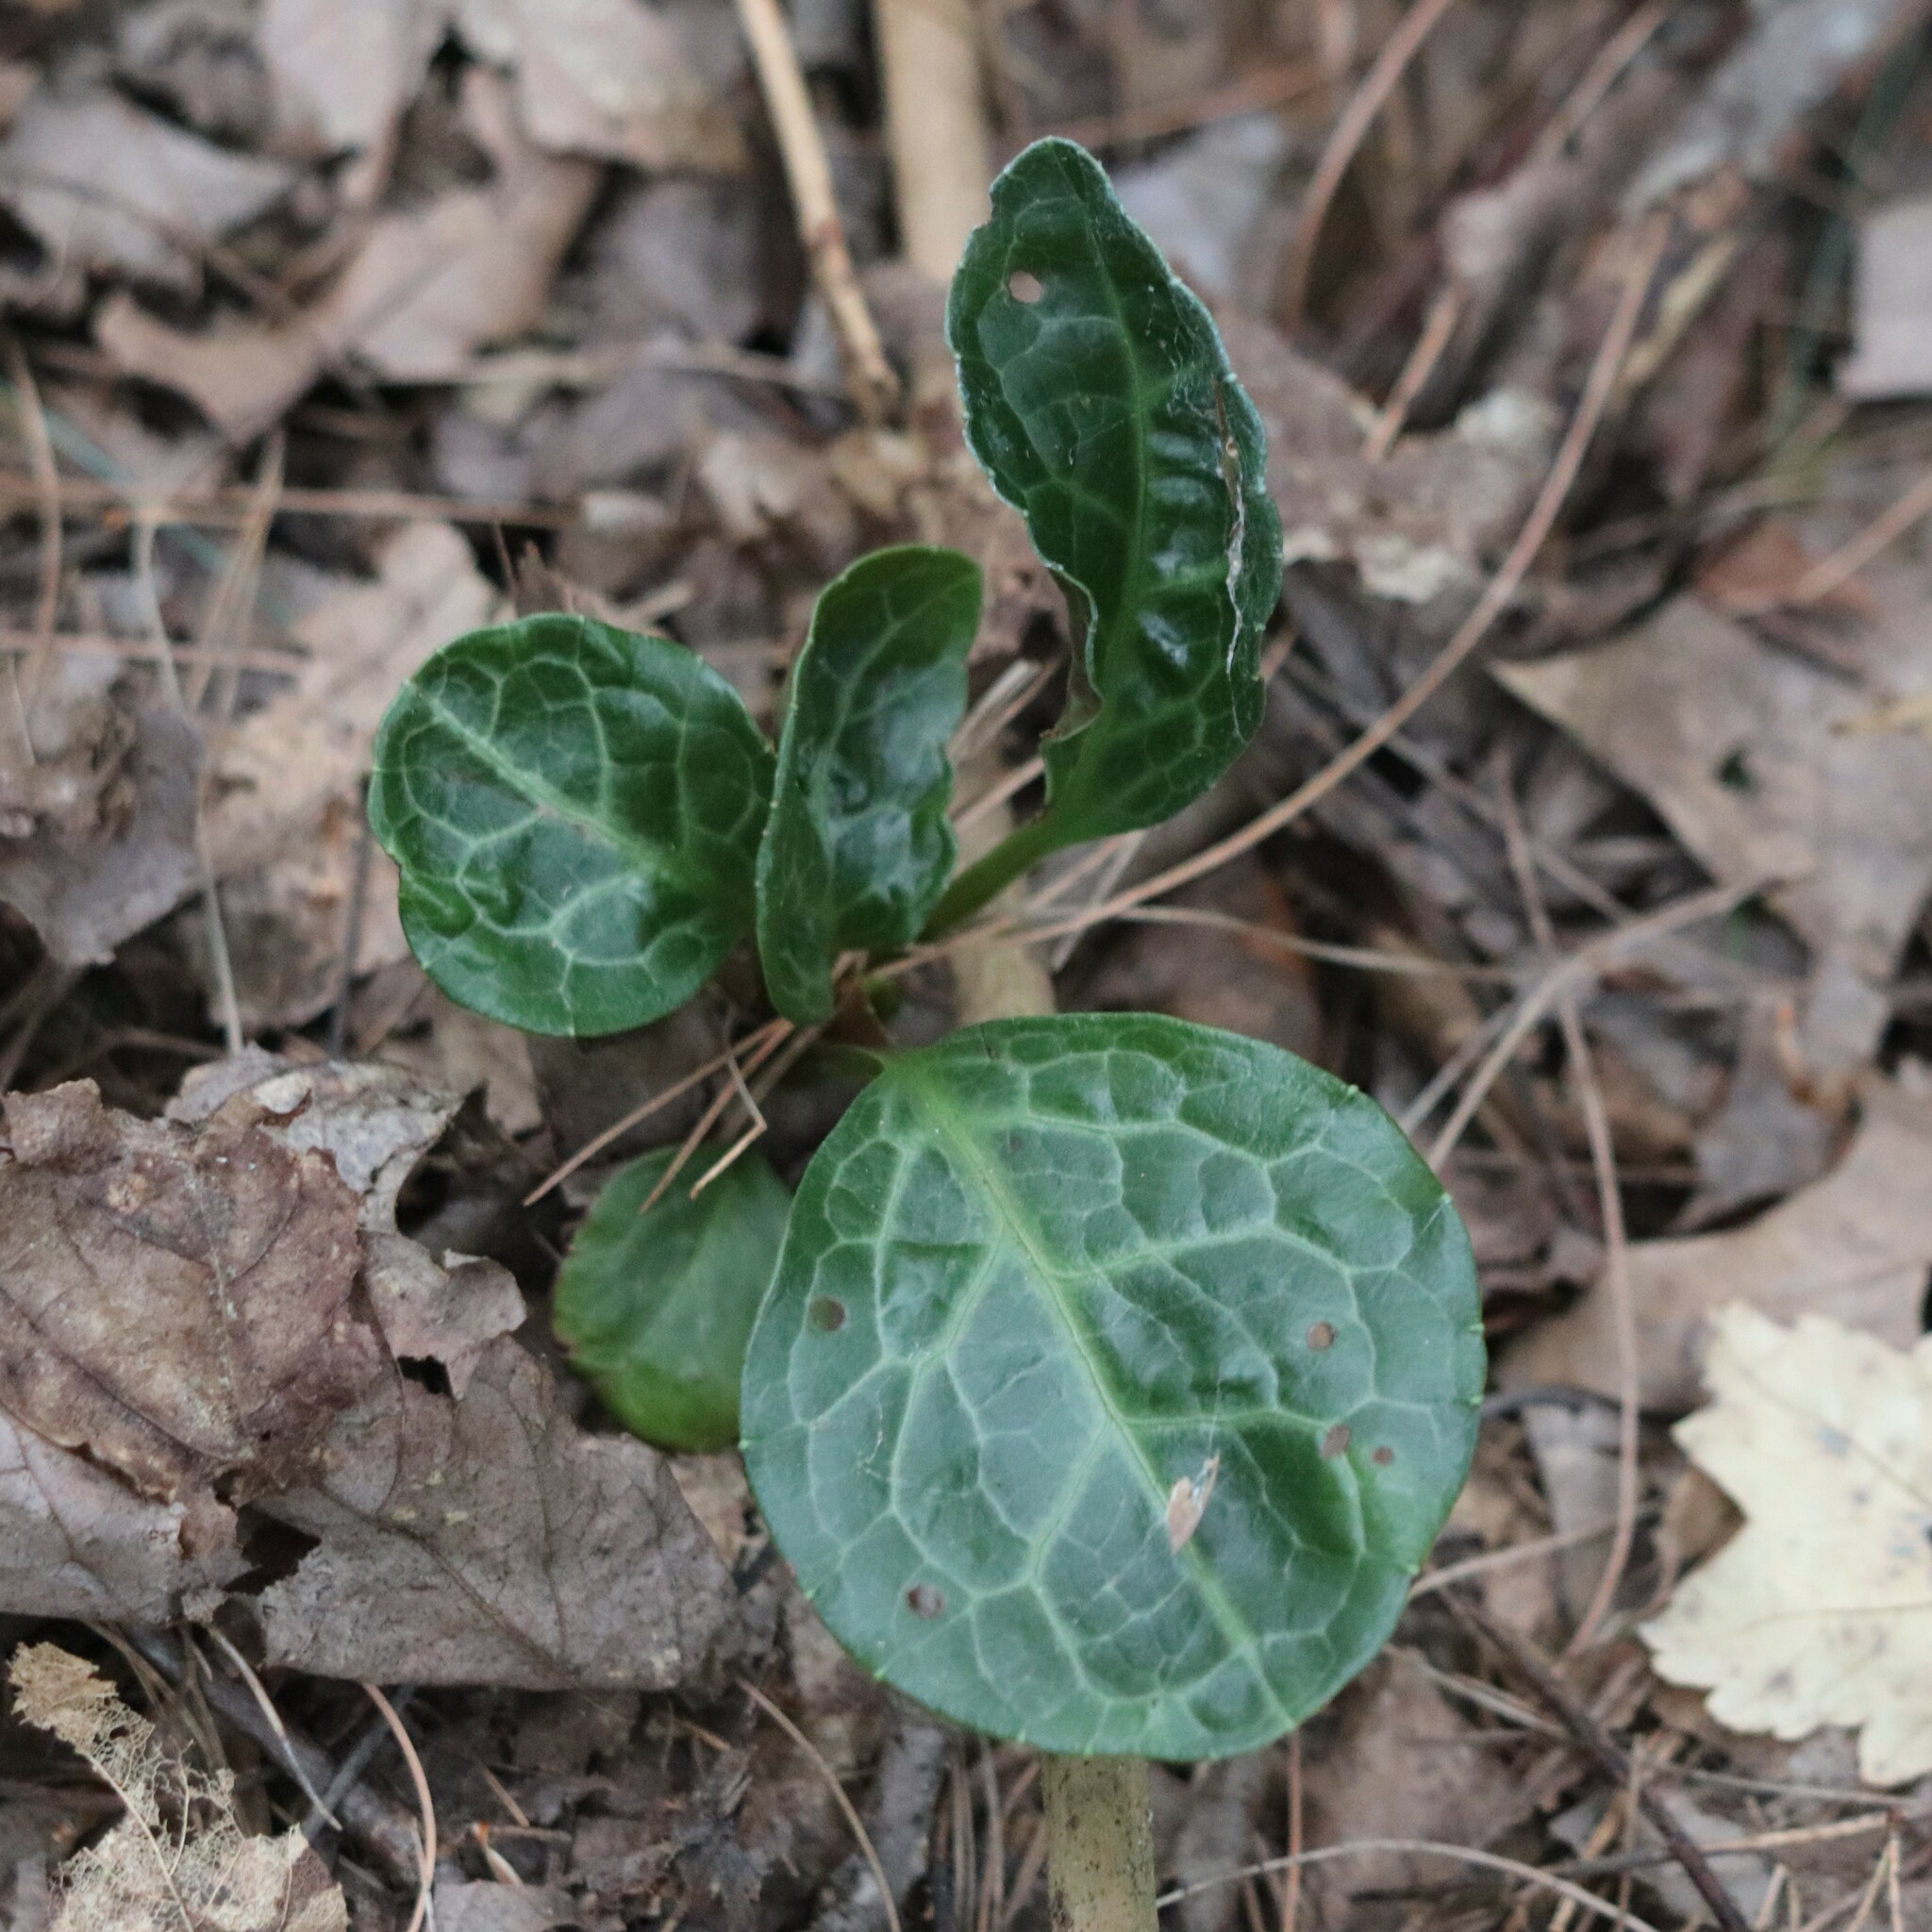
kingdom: Plantae
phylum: Tracheophyta
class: Magnoliopsida
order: Ericales
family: Ericaceae
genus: Pyrola
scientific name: Pyrola americana
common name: American wintergreen
